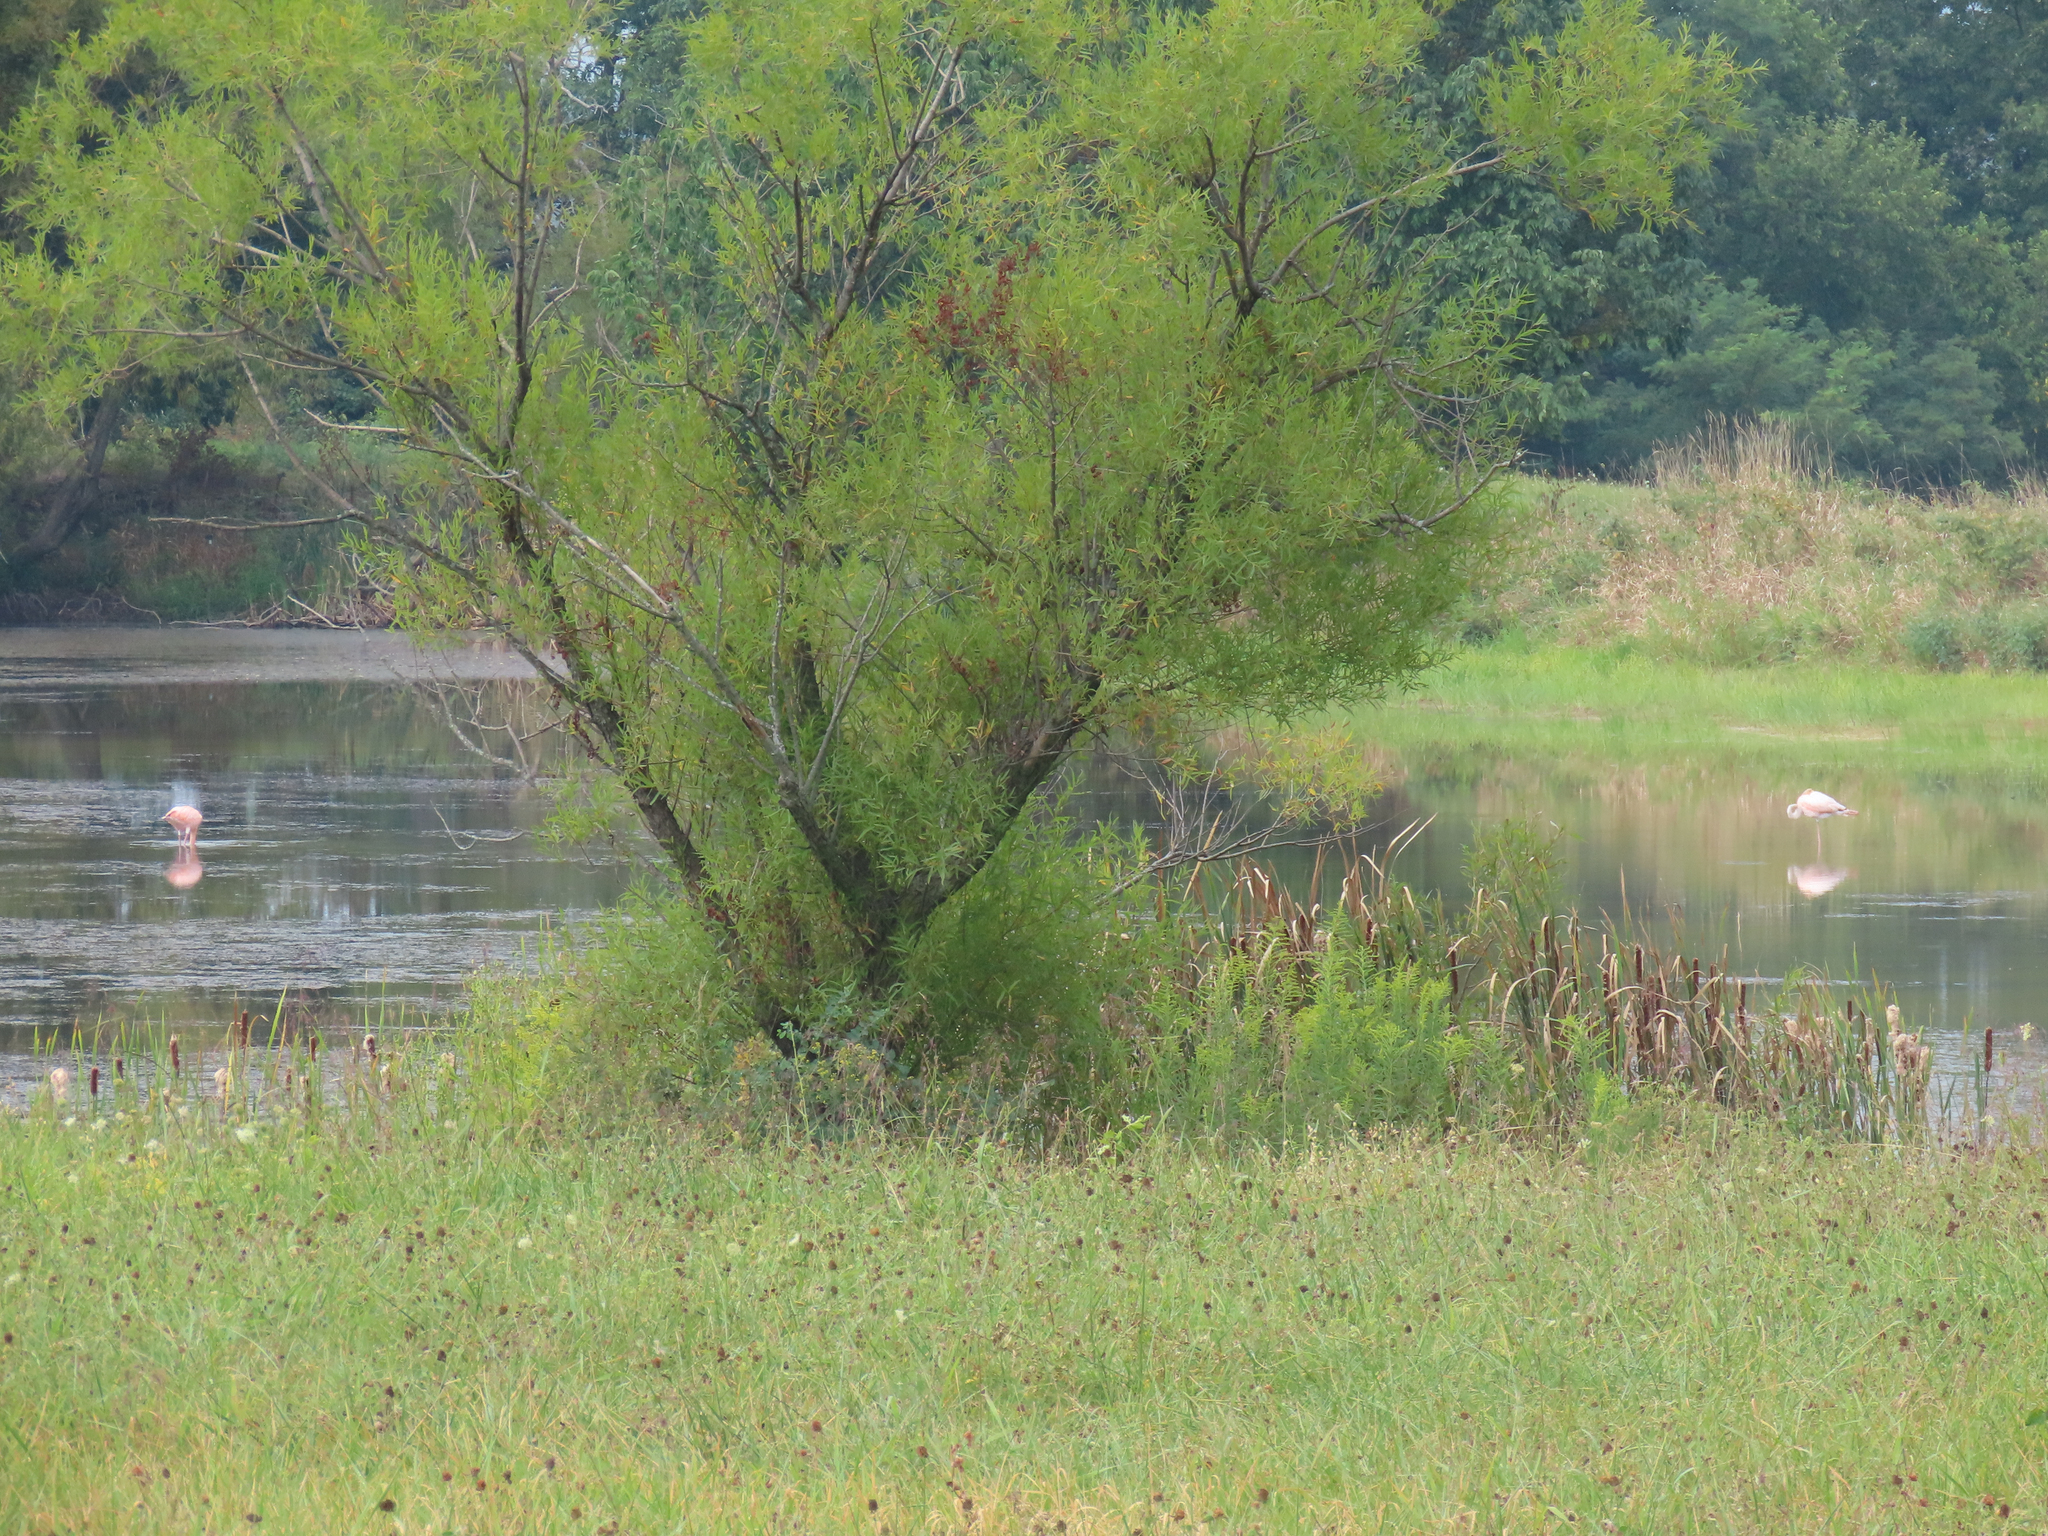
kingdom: Animalia
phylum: Chordata
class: Aves
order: Phoenicopteriformes
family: Phoenicopteridae
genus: Phoenicopterus
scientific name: Phoenicopterus ruber
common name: American flamingo
